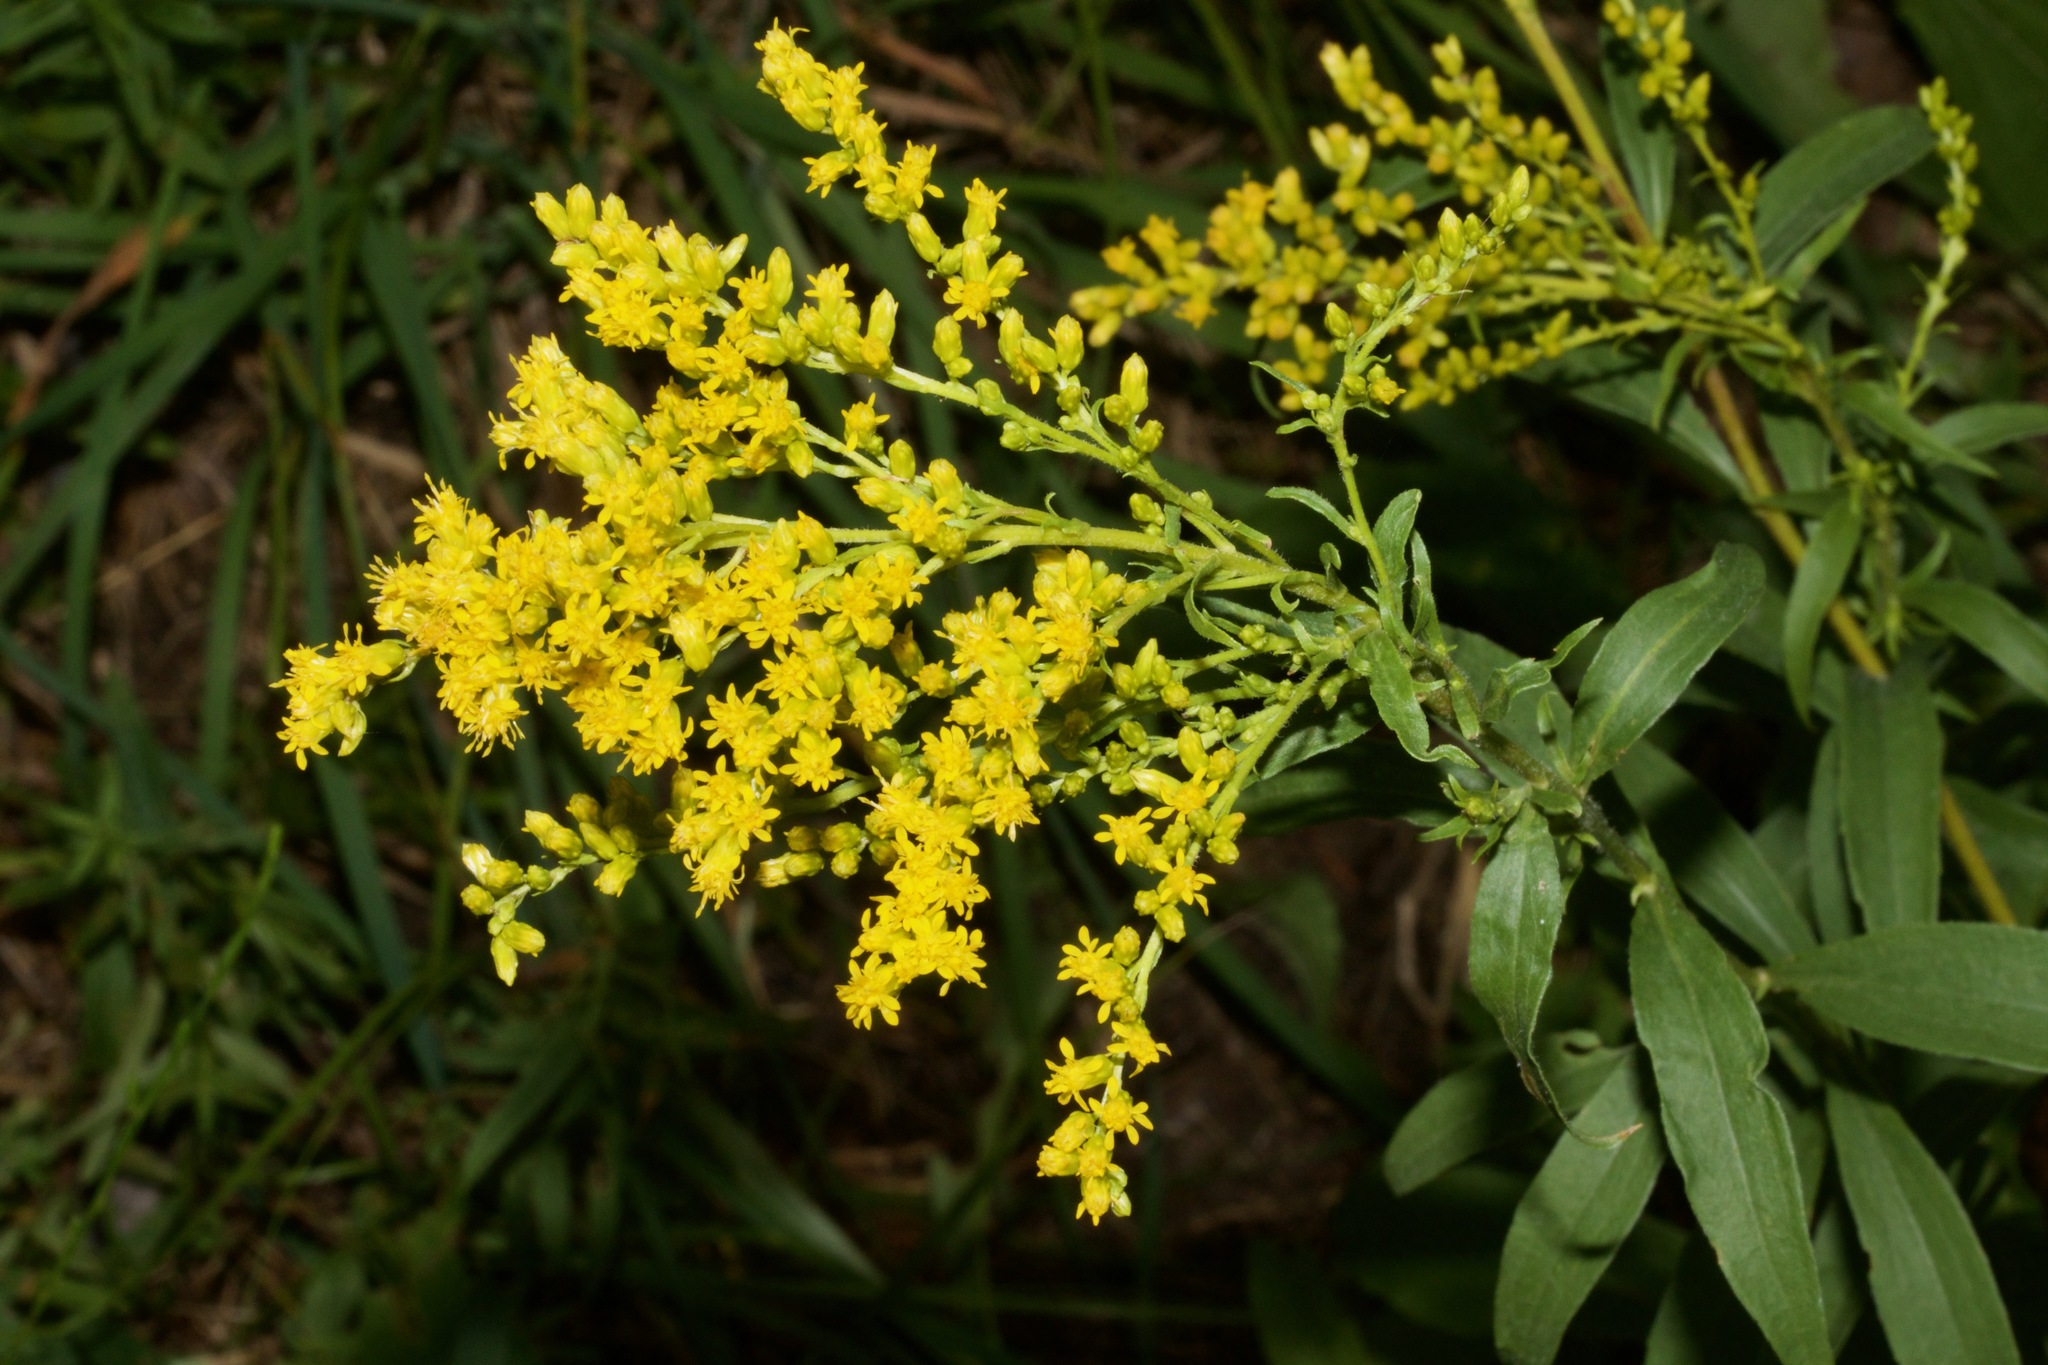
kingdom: Plantae
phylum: Tracheophyta
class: Magnoliopsida
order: Asterales
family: Asteraceae
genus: Solidago
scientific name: Solidago juncea
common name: Early goldenrod
